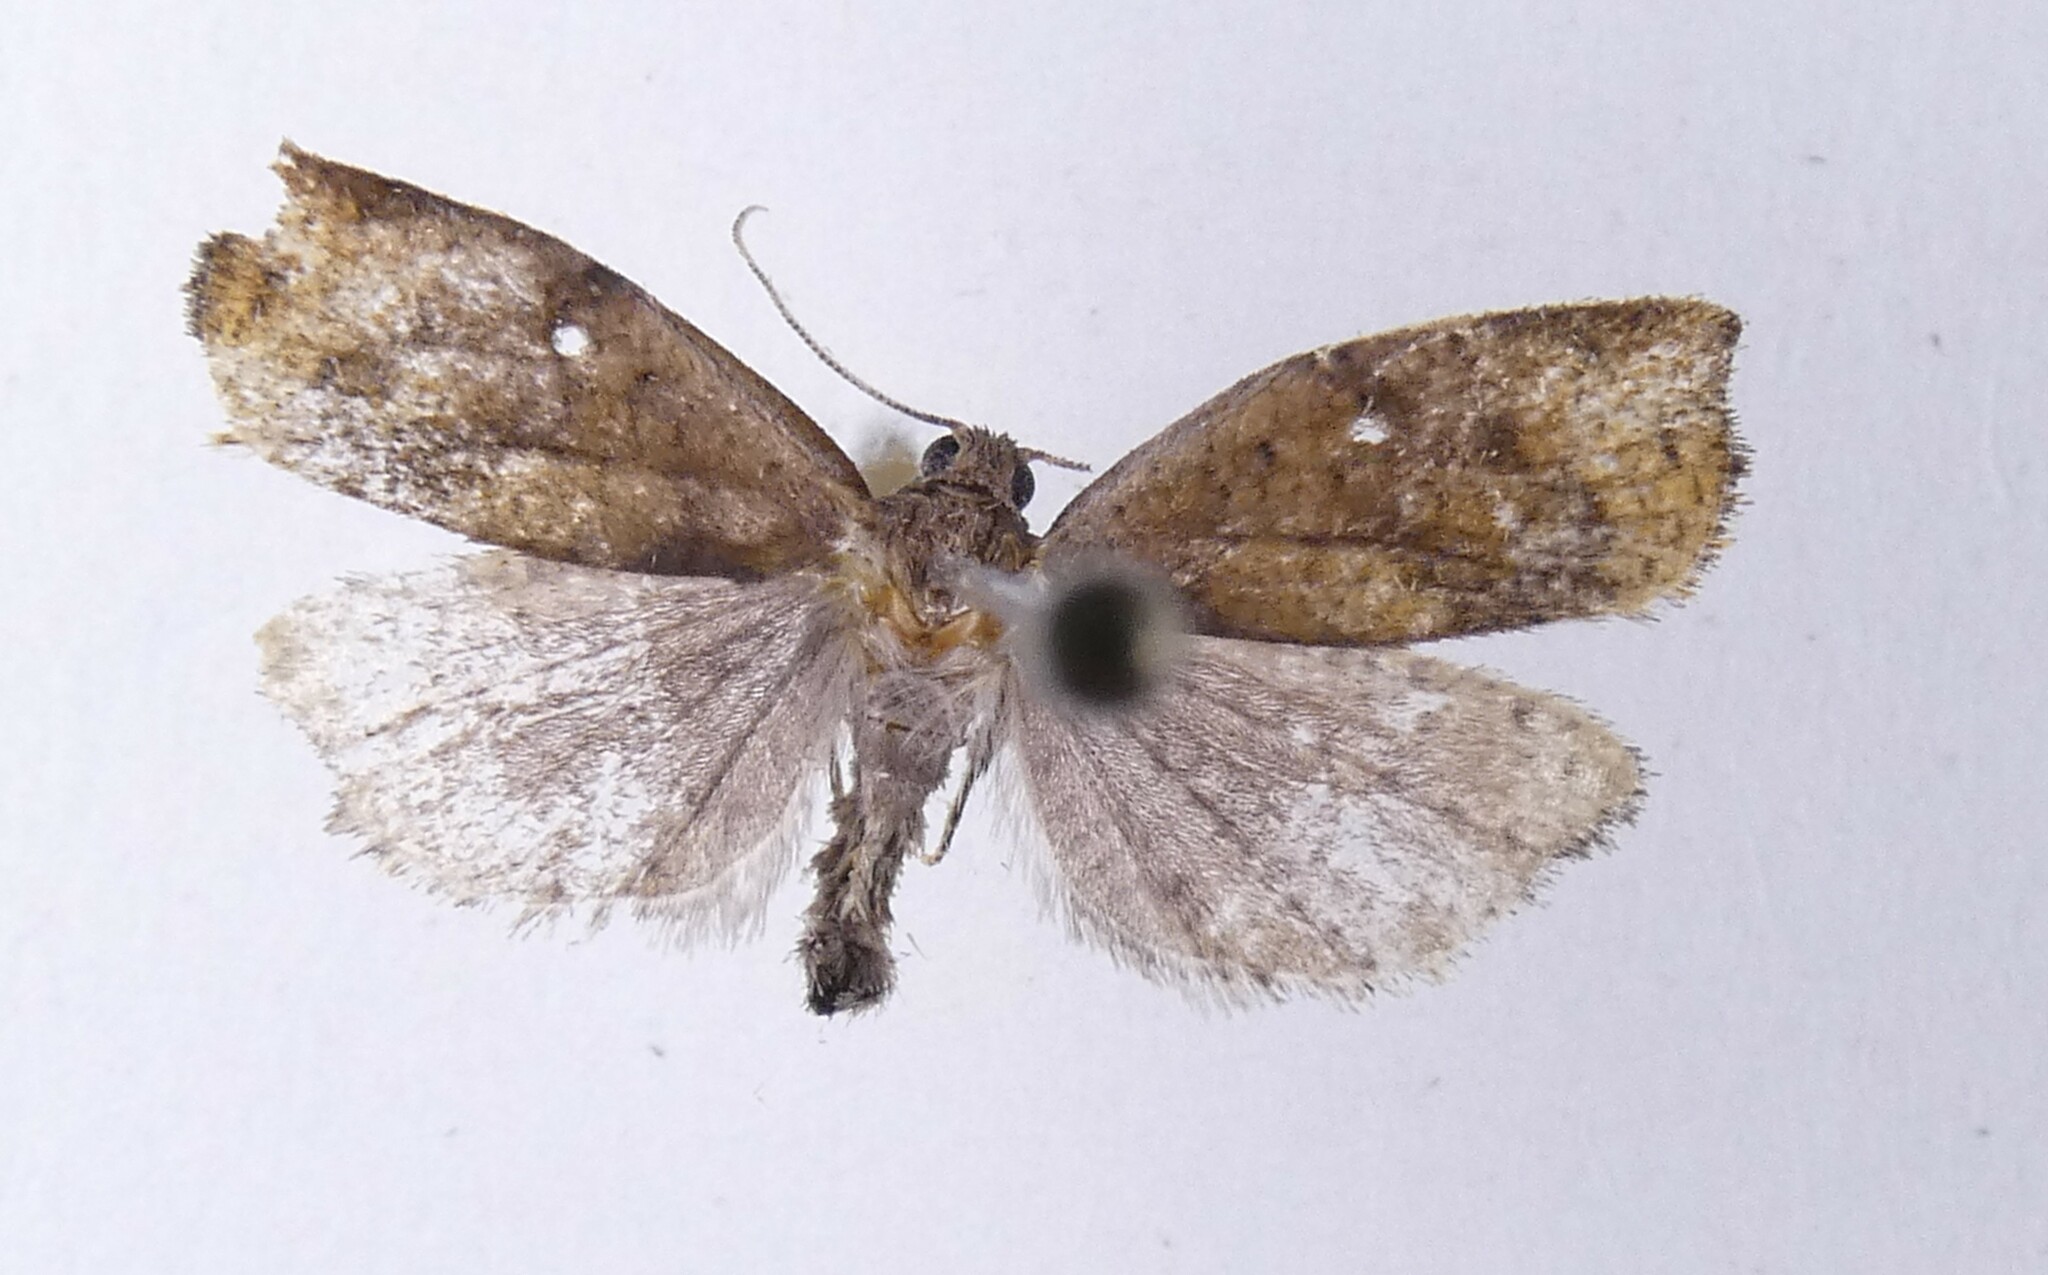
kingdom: Animalia
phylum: Arthropoda
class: Insecta
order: Lepidoptera
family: Tortricidae
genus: Apoctena
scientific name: Apoctena flavescens
